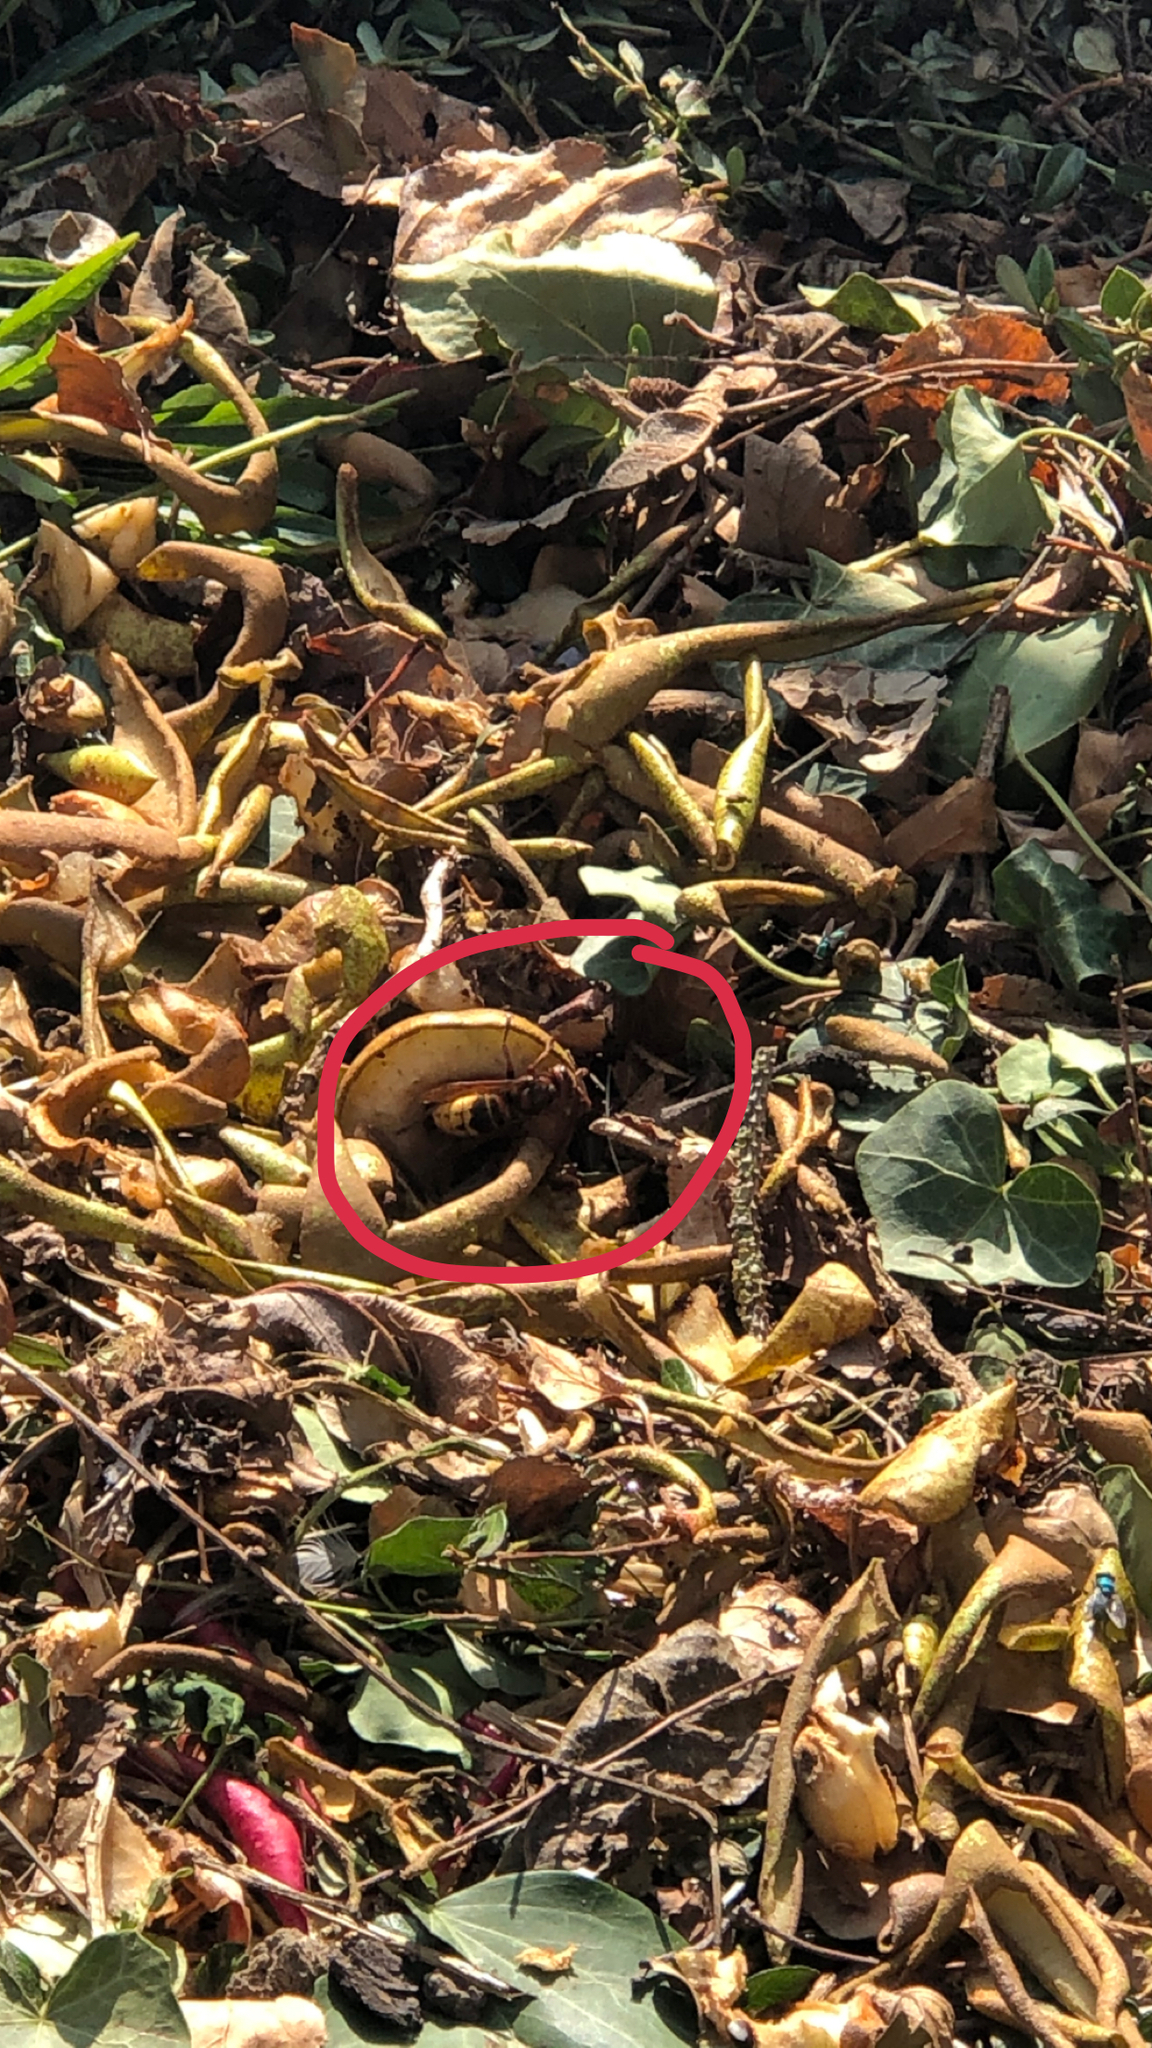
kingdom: Animalia
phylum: Arthropoda
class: Insecta
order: Hymenoptera
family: Vespidae
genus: Vespa
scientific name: Vespa crabro
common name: Hornet
